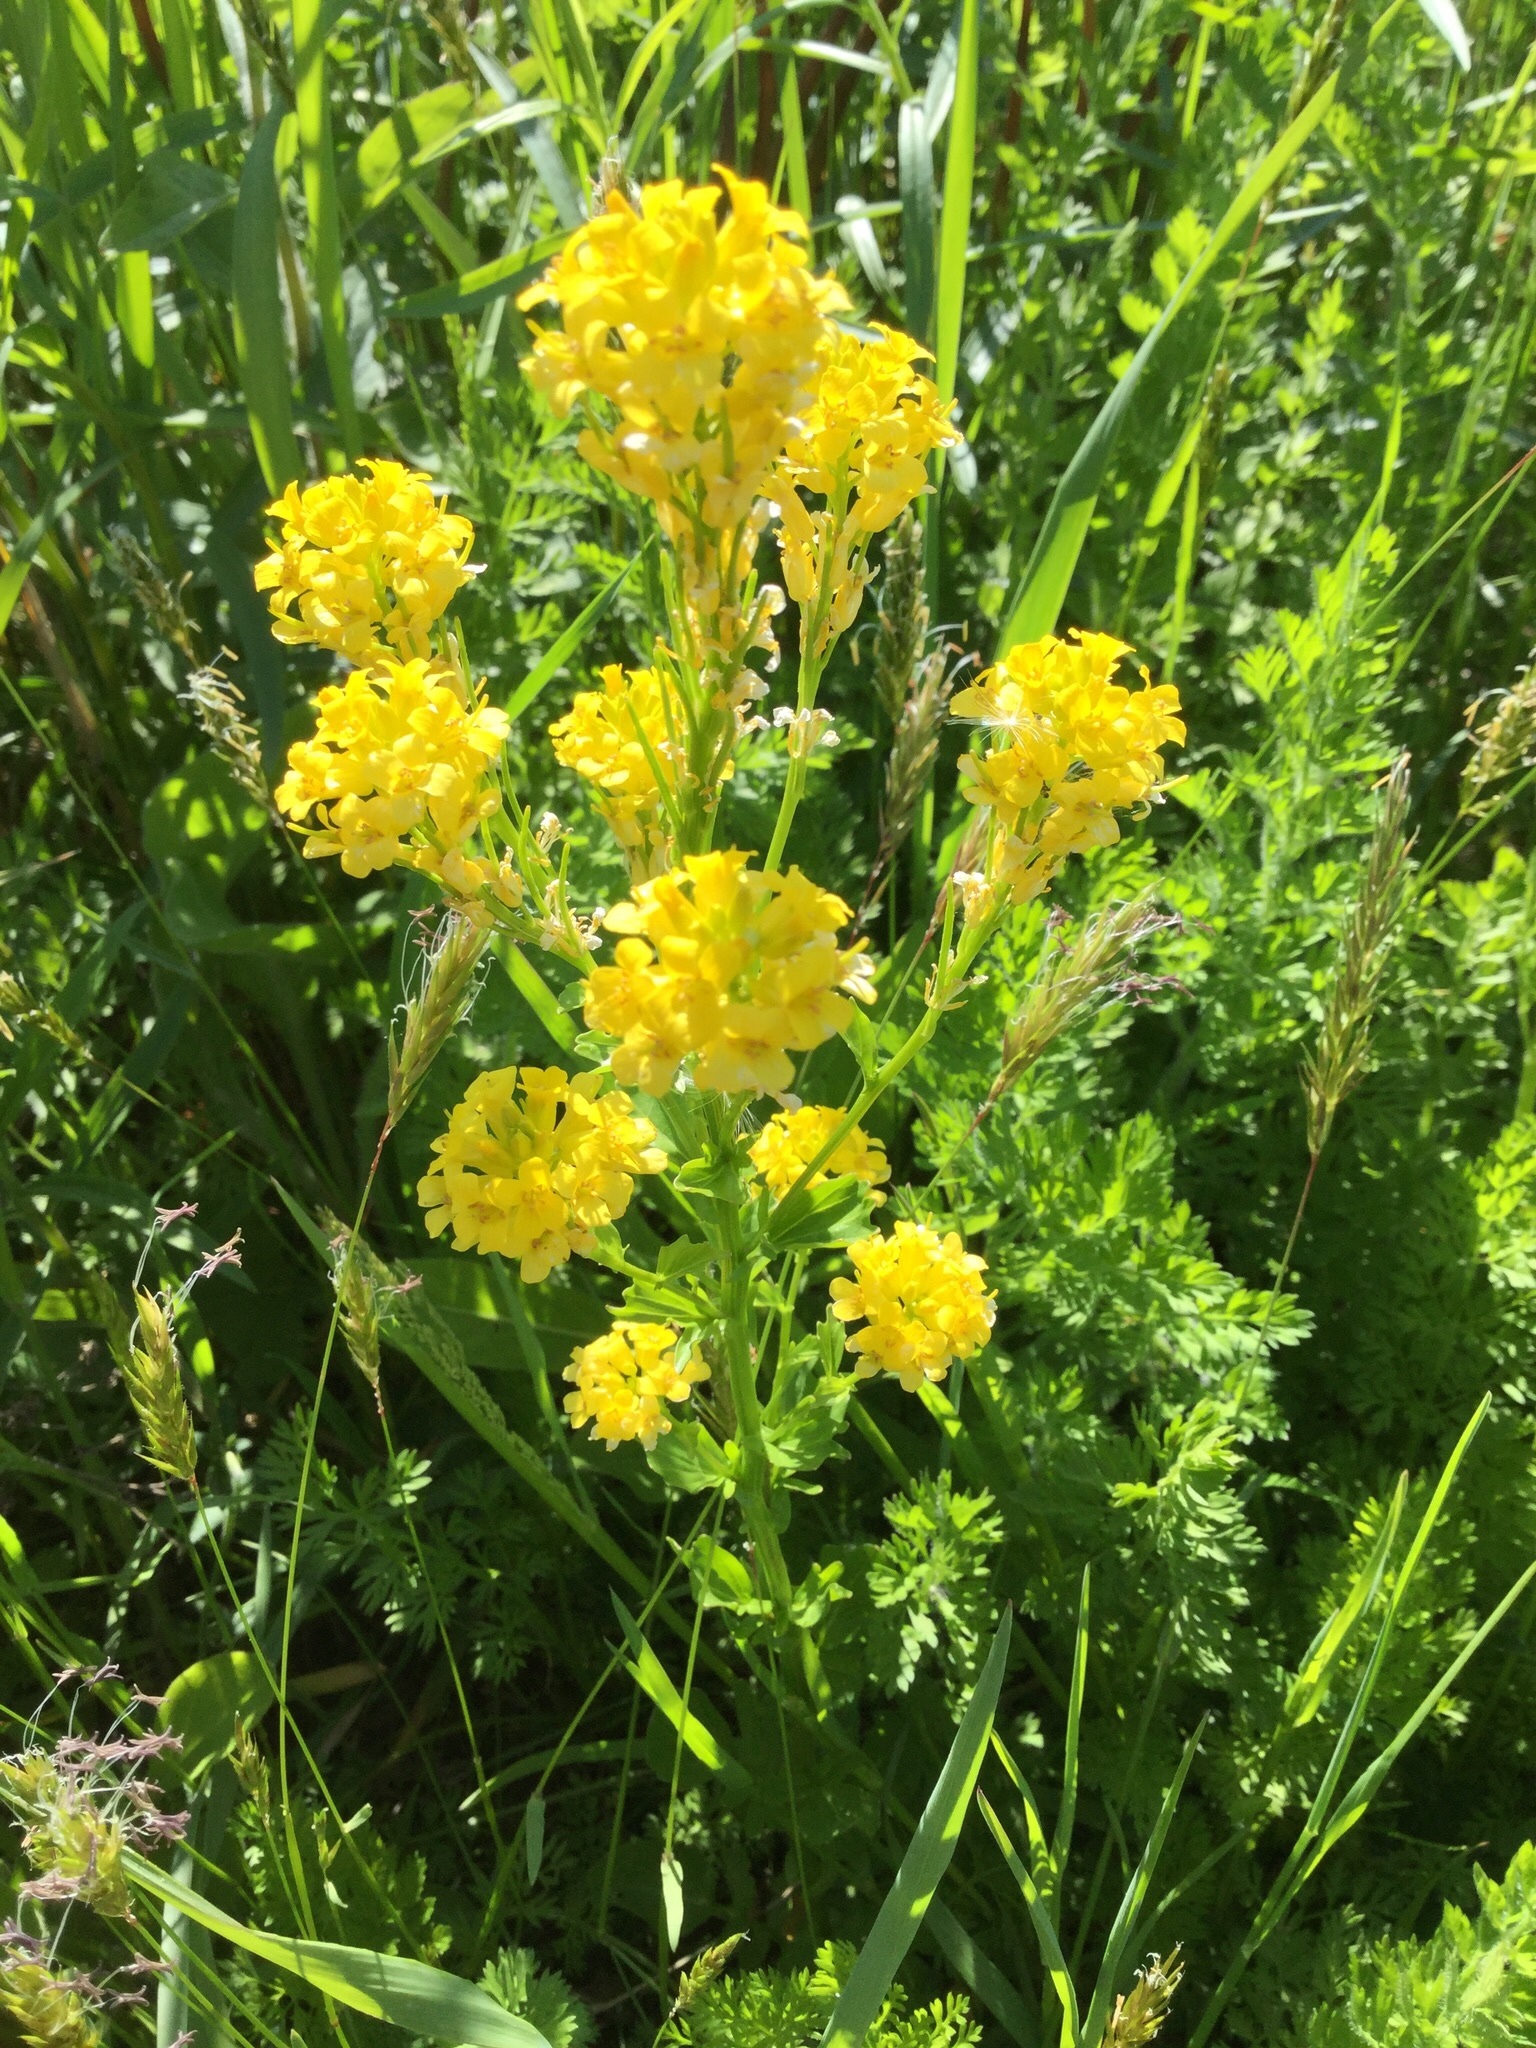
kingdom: Plantae
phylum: Tracheophyta
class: Magnoliopsida
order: Brassicales
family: Brassicaceae
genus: Barbarea
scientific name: Barbarea vulgaris
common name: Cressy-greens
